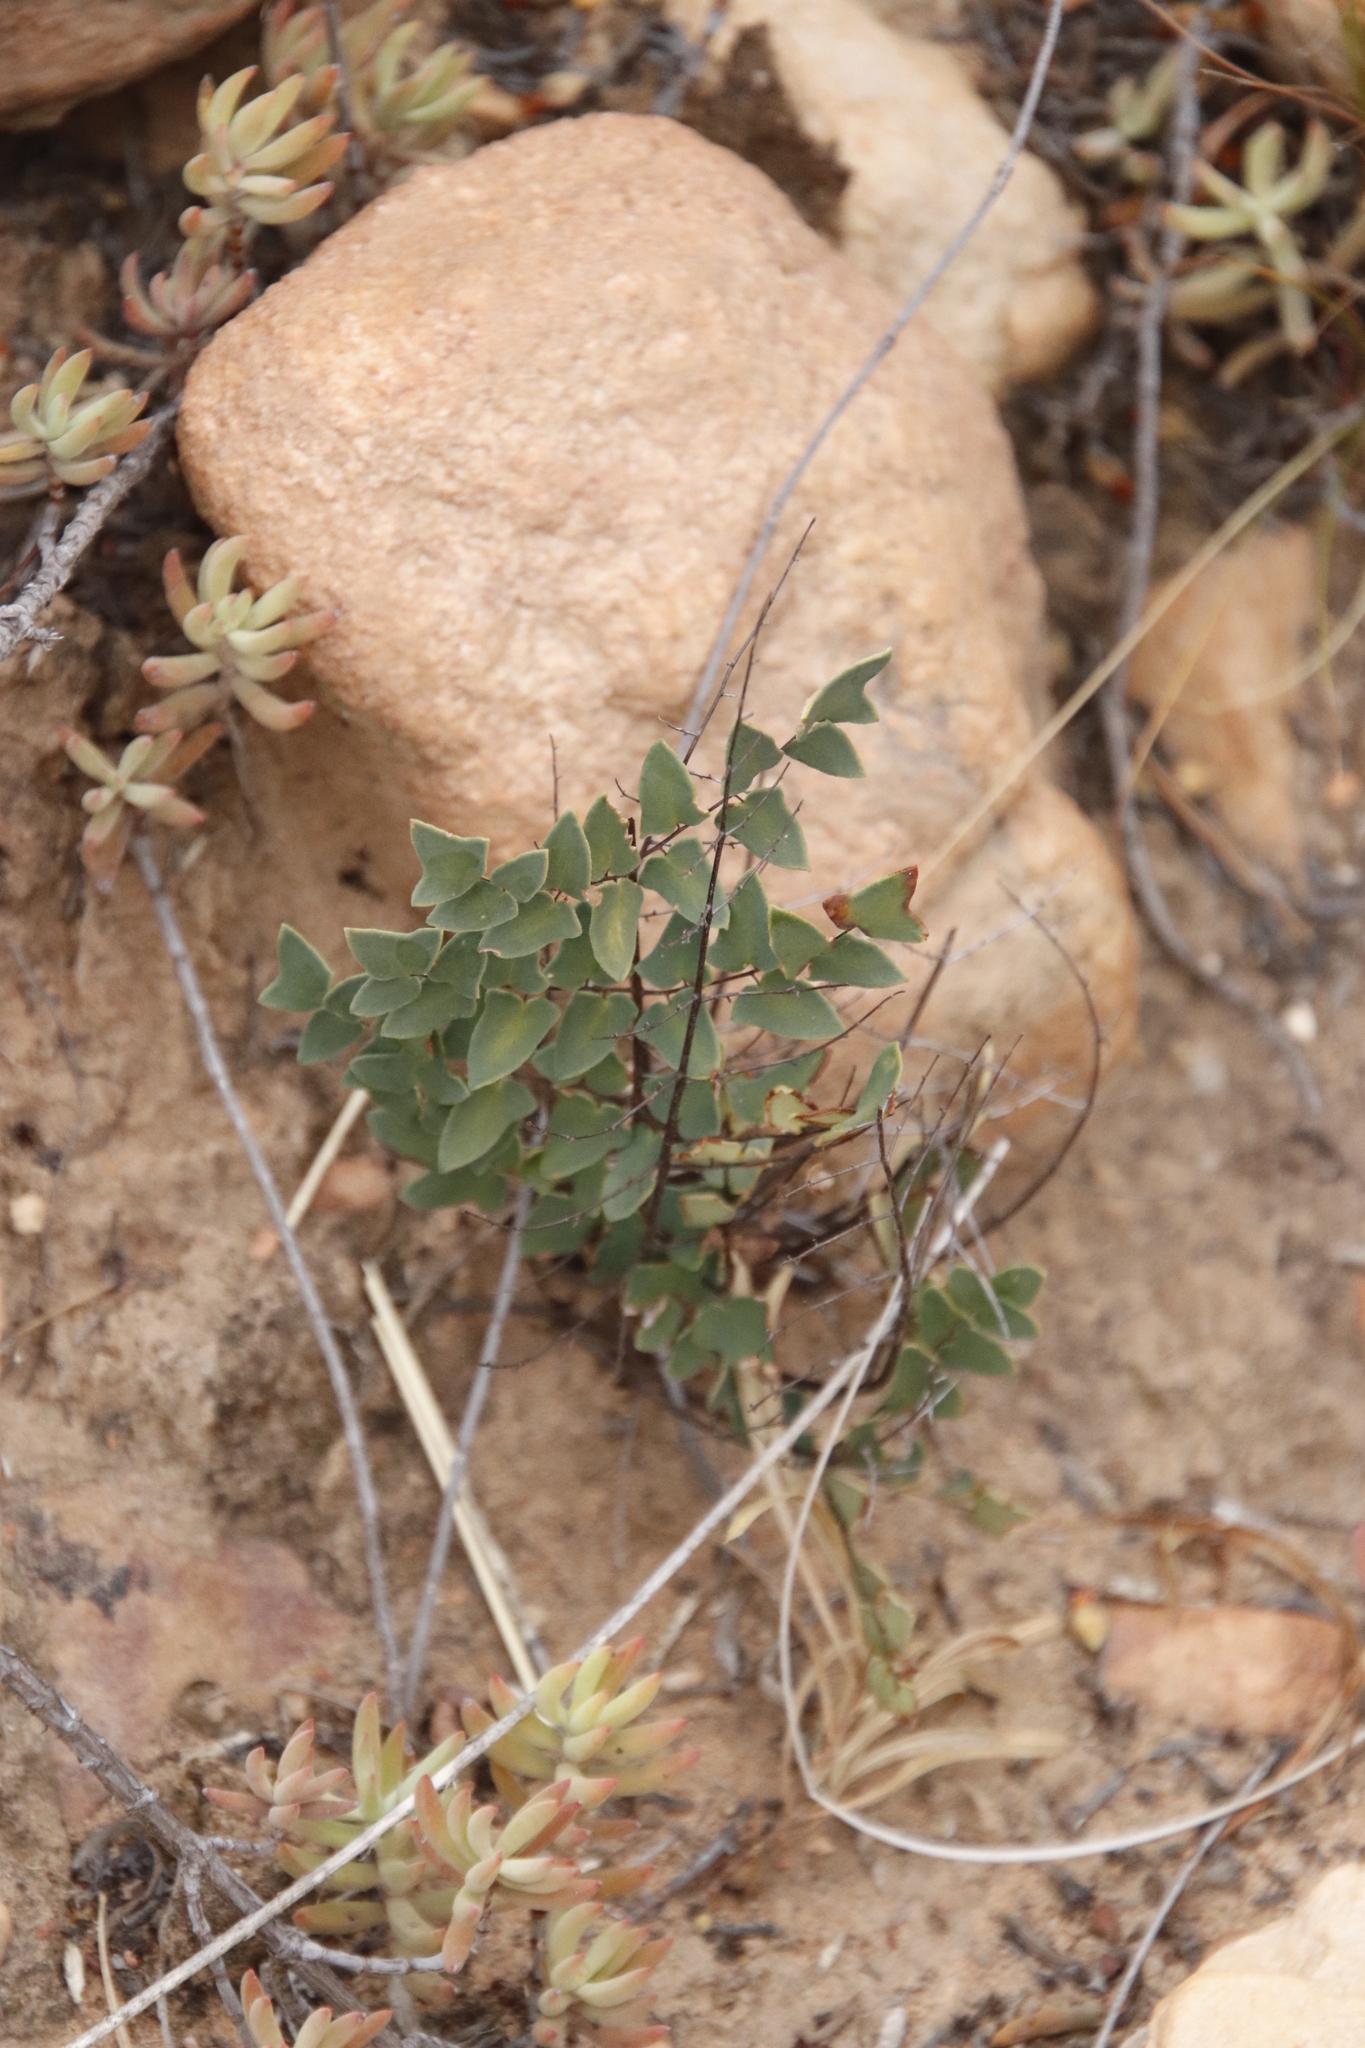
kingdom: Plantae
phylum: Tracheophyta
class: Polypodiopsida
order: Polypodiales
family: Pteridaceae
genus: Pellaea
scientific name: Pellaea calomelanos
